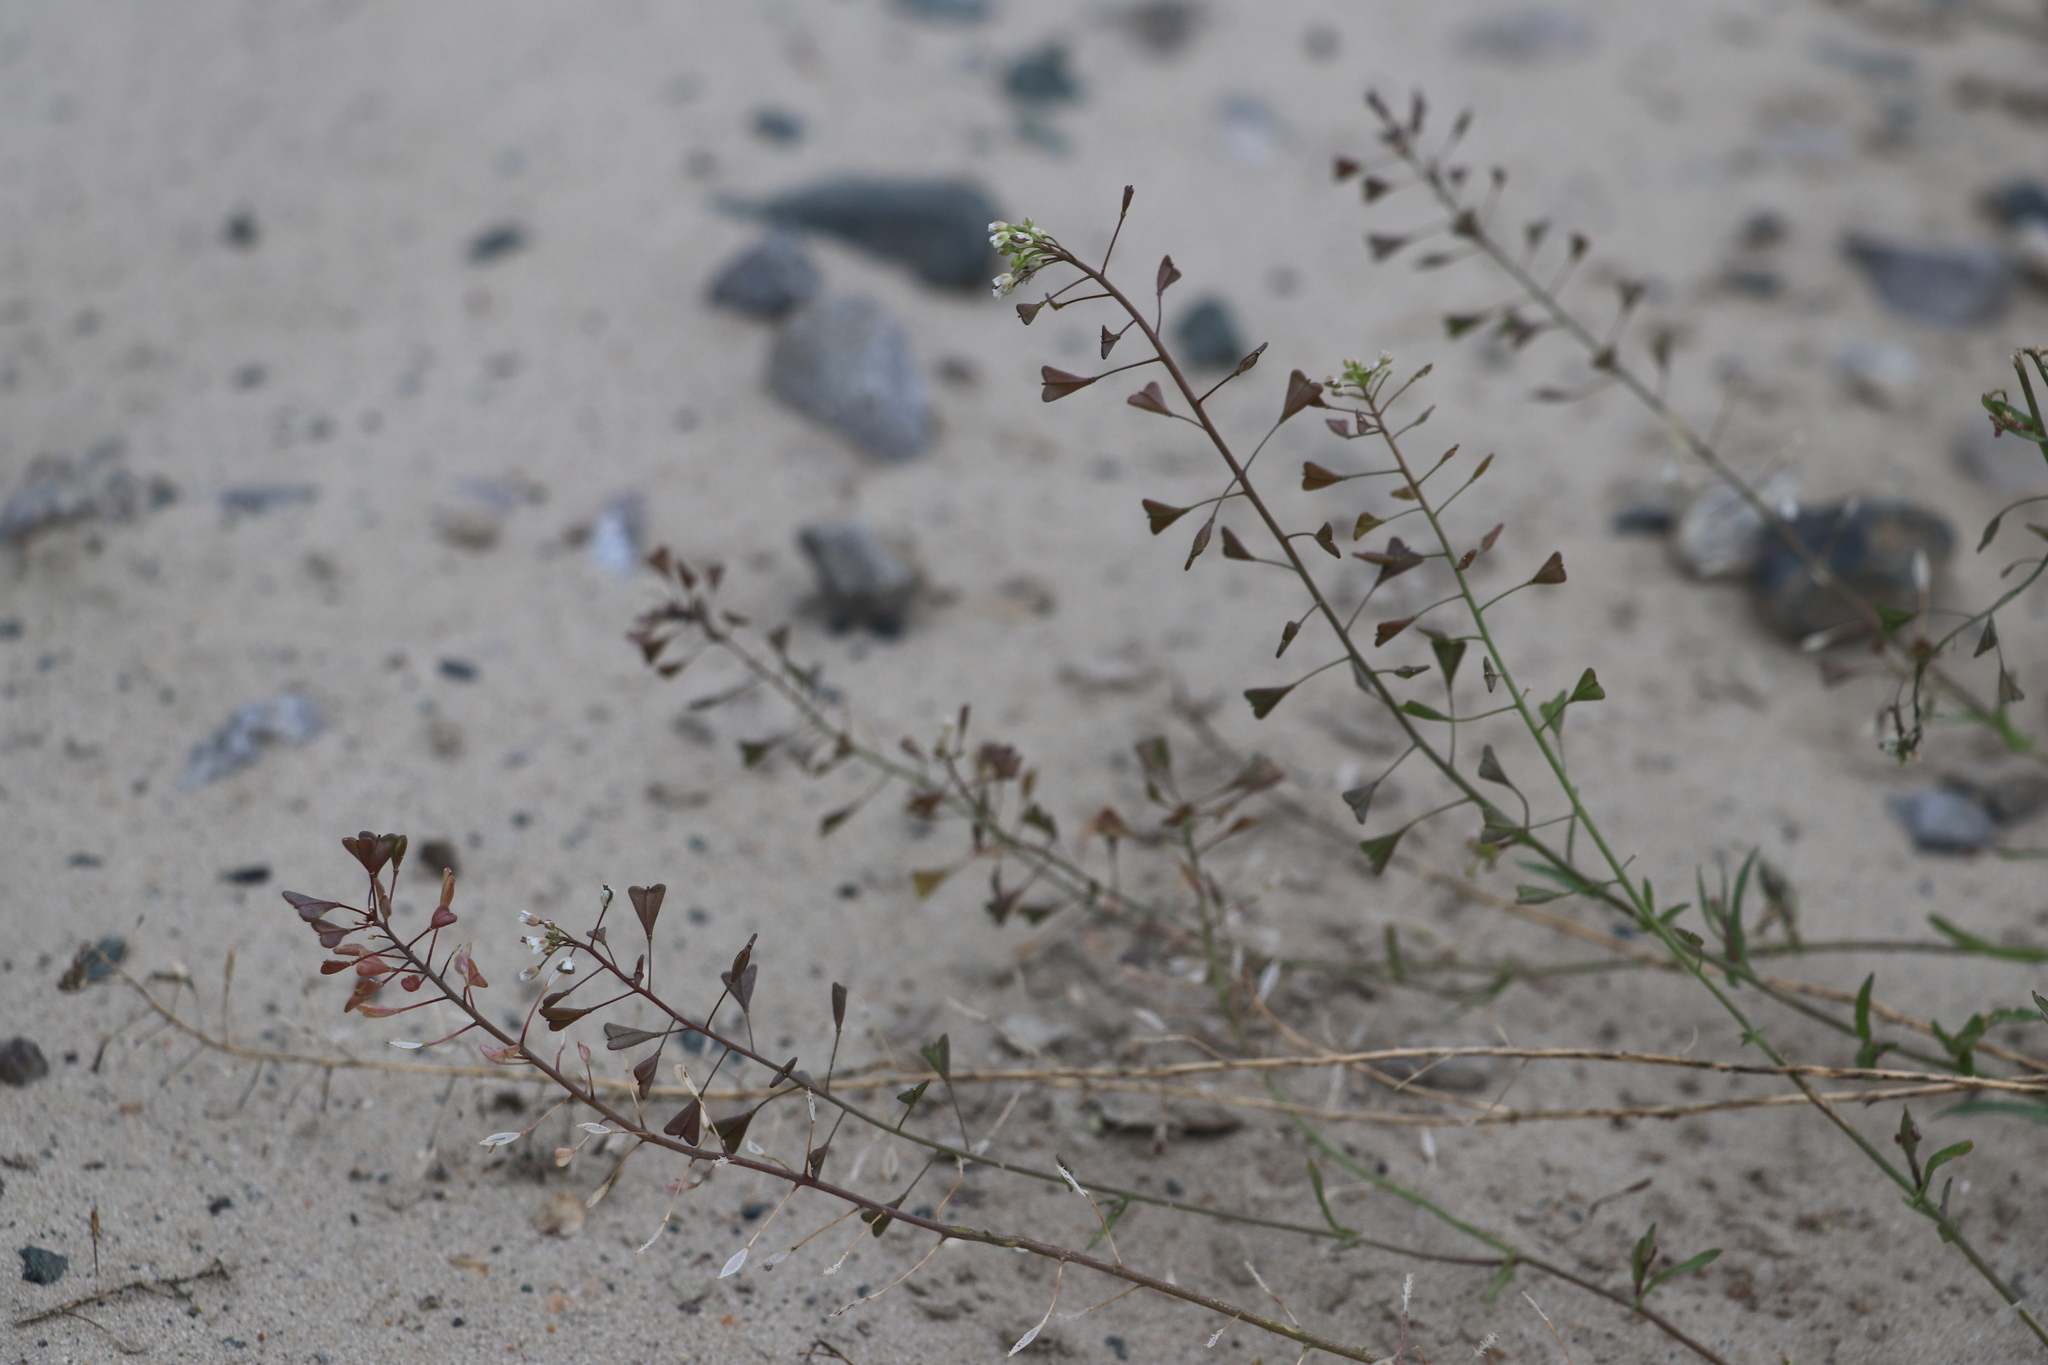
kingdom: Plantae
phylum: Tracheophyta
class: Magnoliopsida
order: Brassicales
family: Brassicaceae
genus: Capsella
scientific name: Capsella bursa-pastoris
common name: Shepherd's purse
